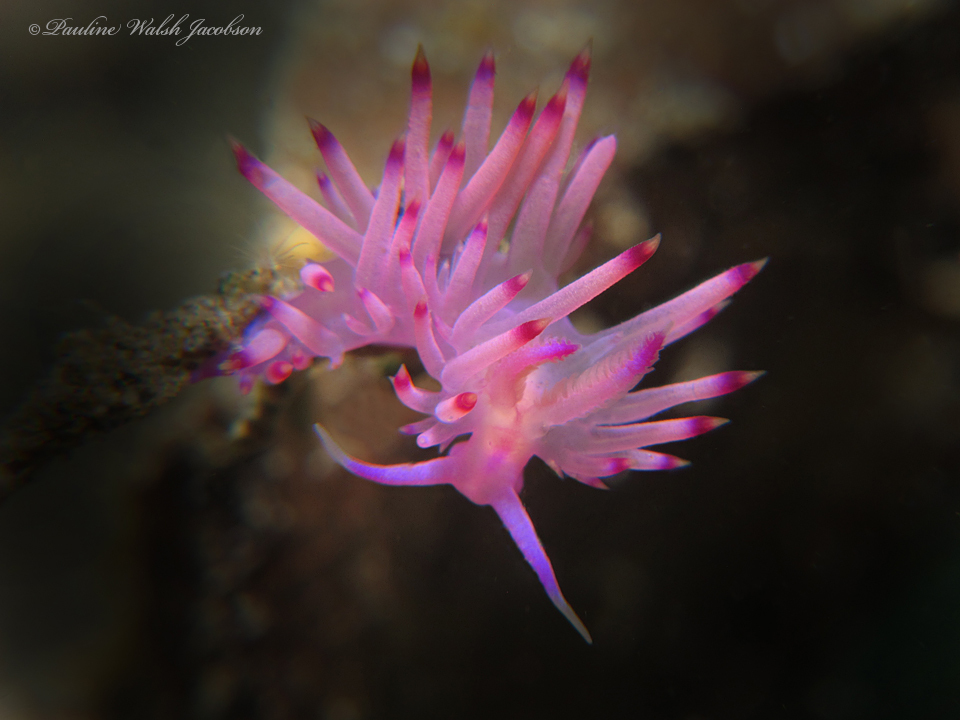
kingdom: Animalia
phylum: Mollusca
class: Gastropoda
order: Nudibranchia
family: Flabellinidae
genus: Coryphellina
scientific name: Coryphellina aurora
